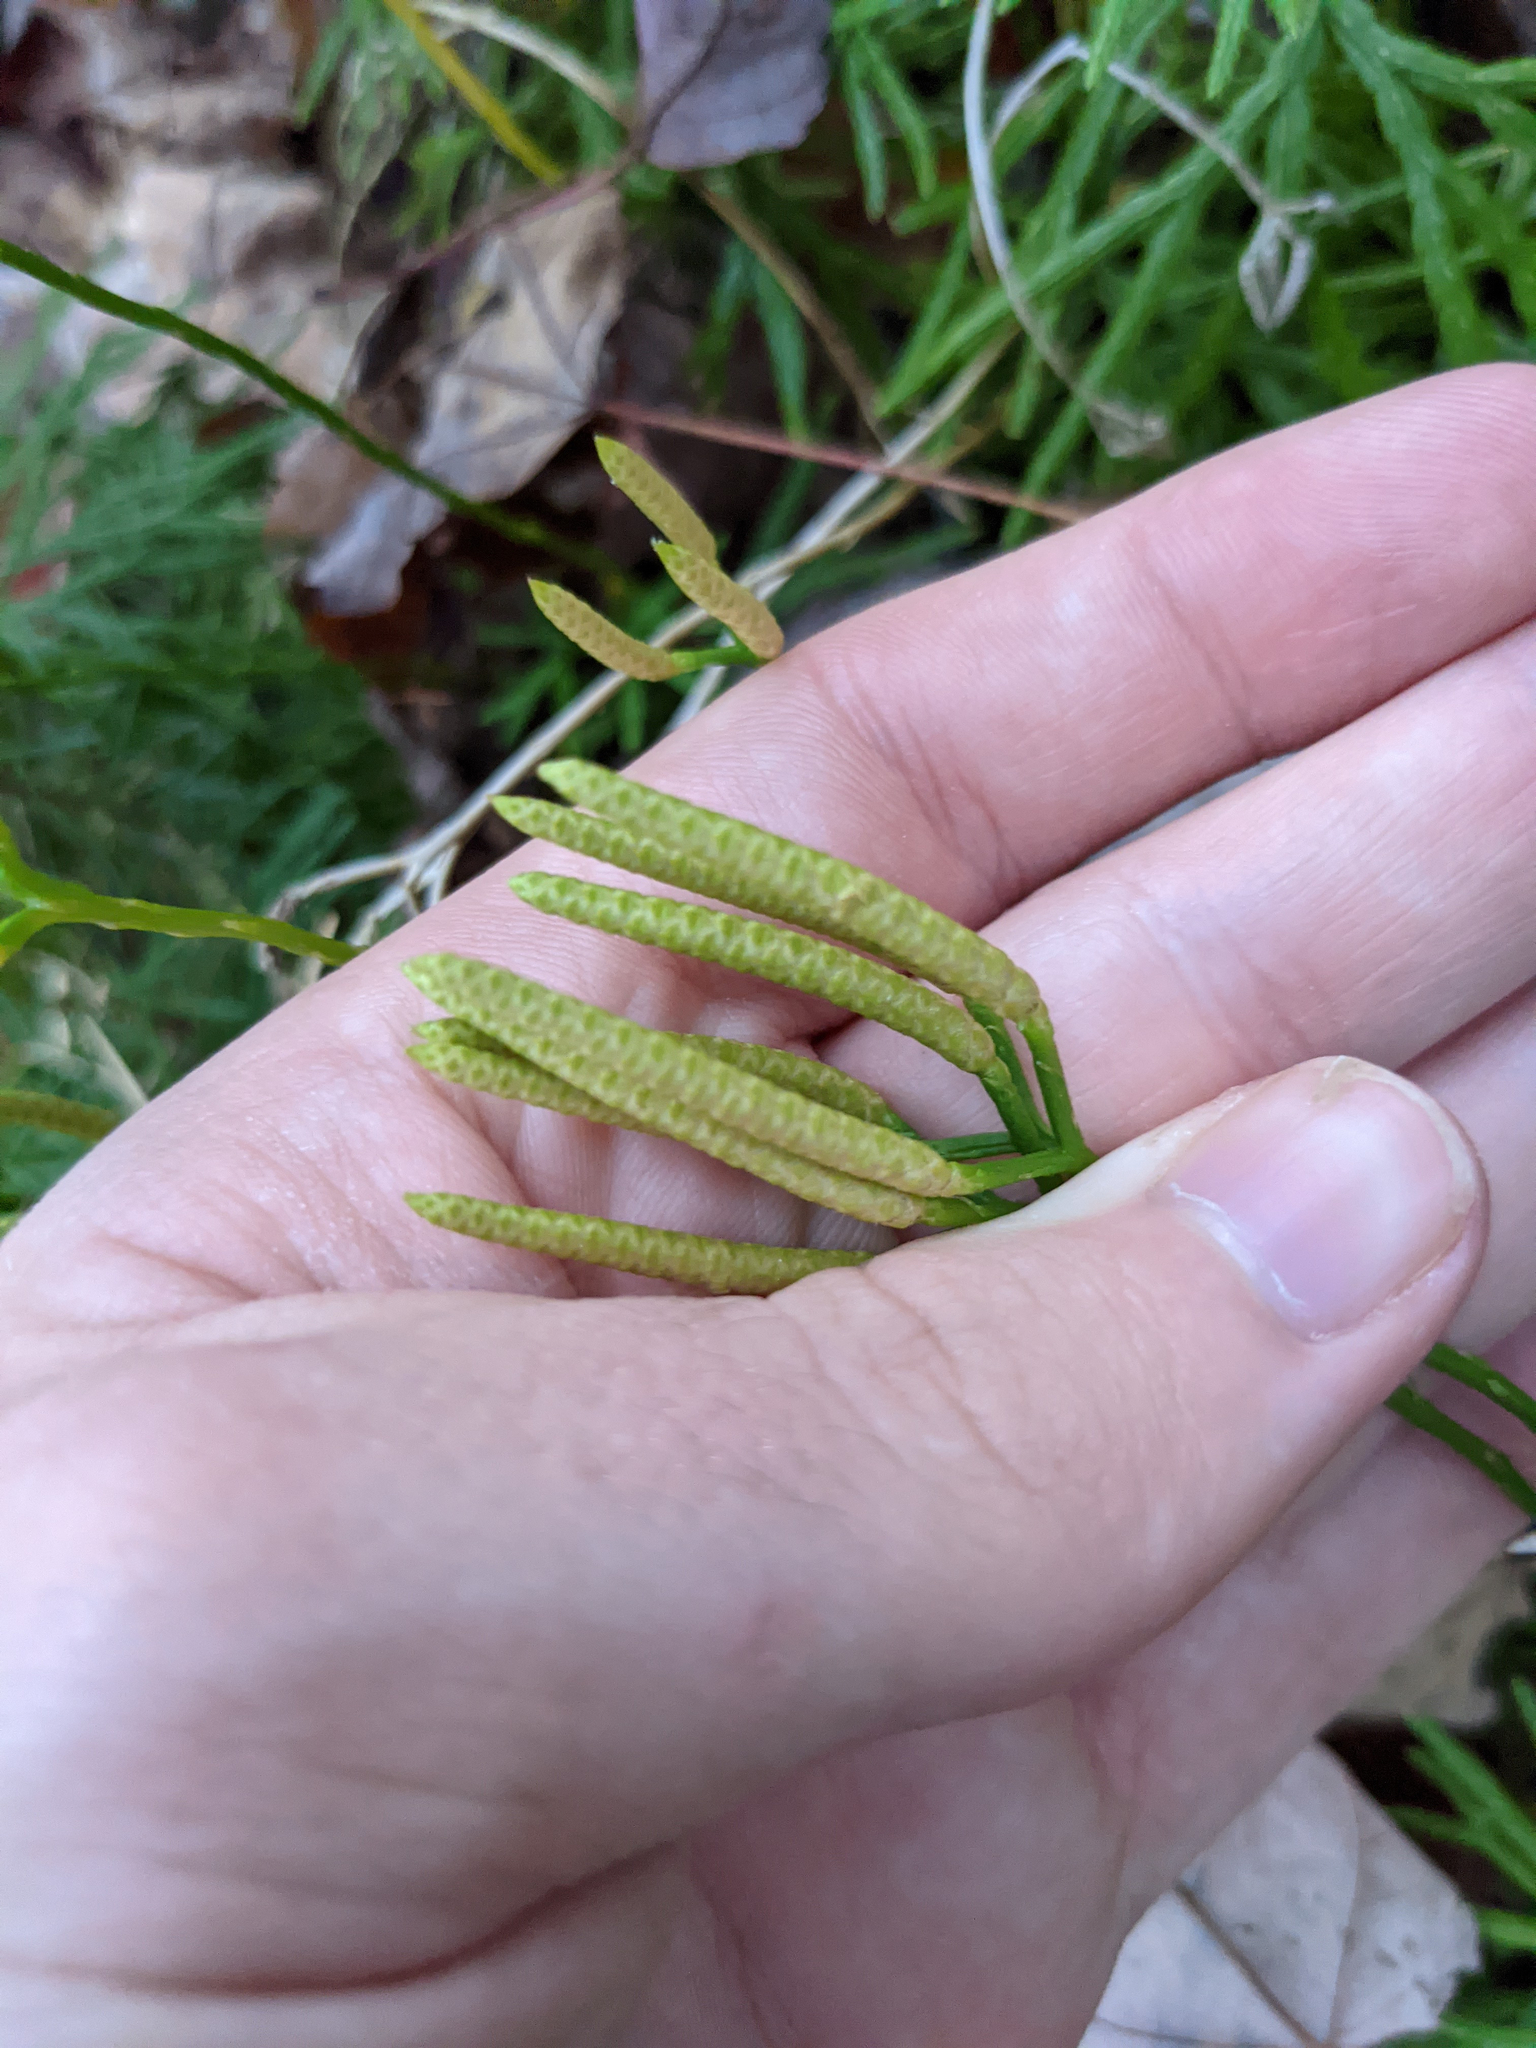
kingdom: Plantae
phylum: Tracheophyta
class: Lycopodiopsida
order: Lycopodiales
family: Lycopodiaceae
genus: Diphasiastrum
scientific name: Diphasiastrum digitatum
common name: Southern running-pine
